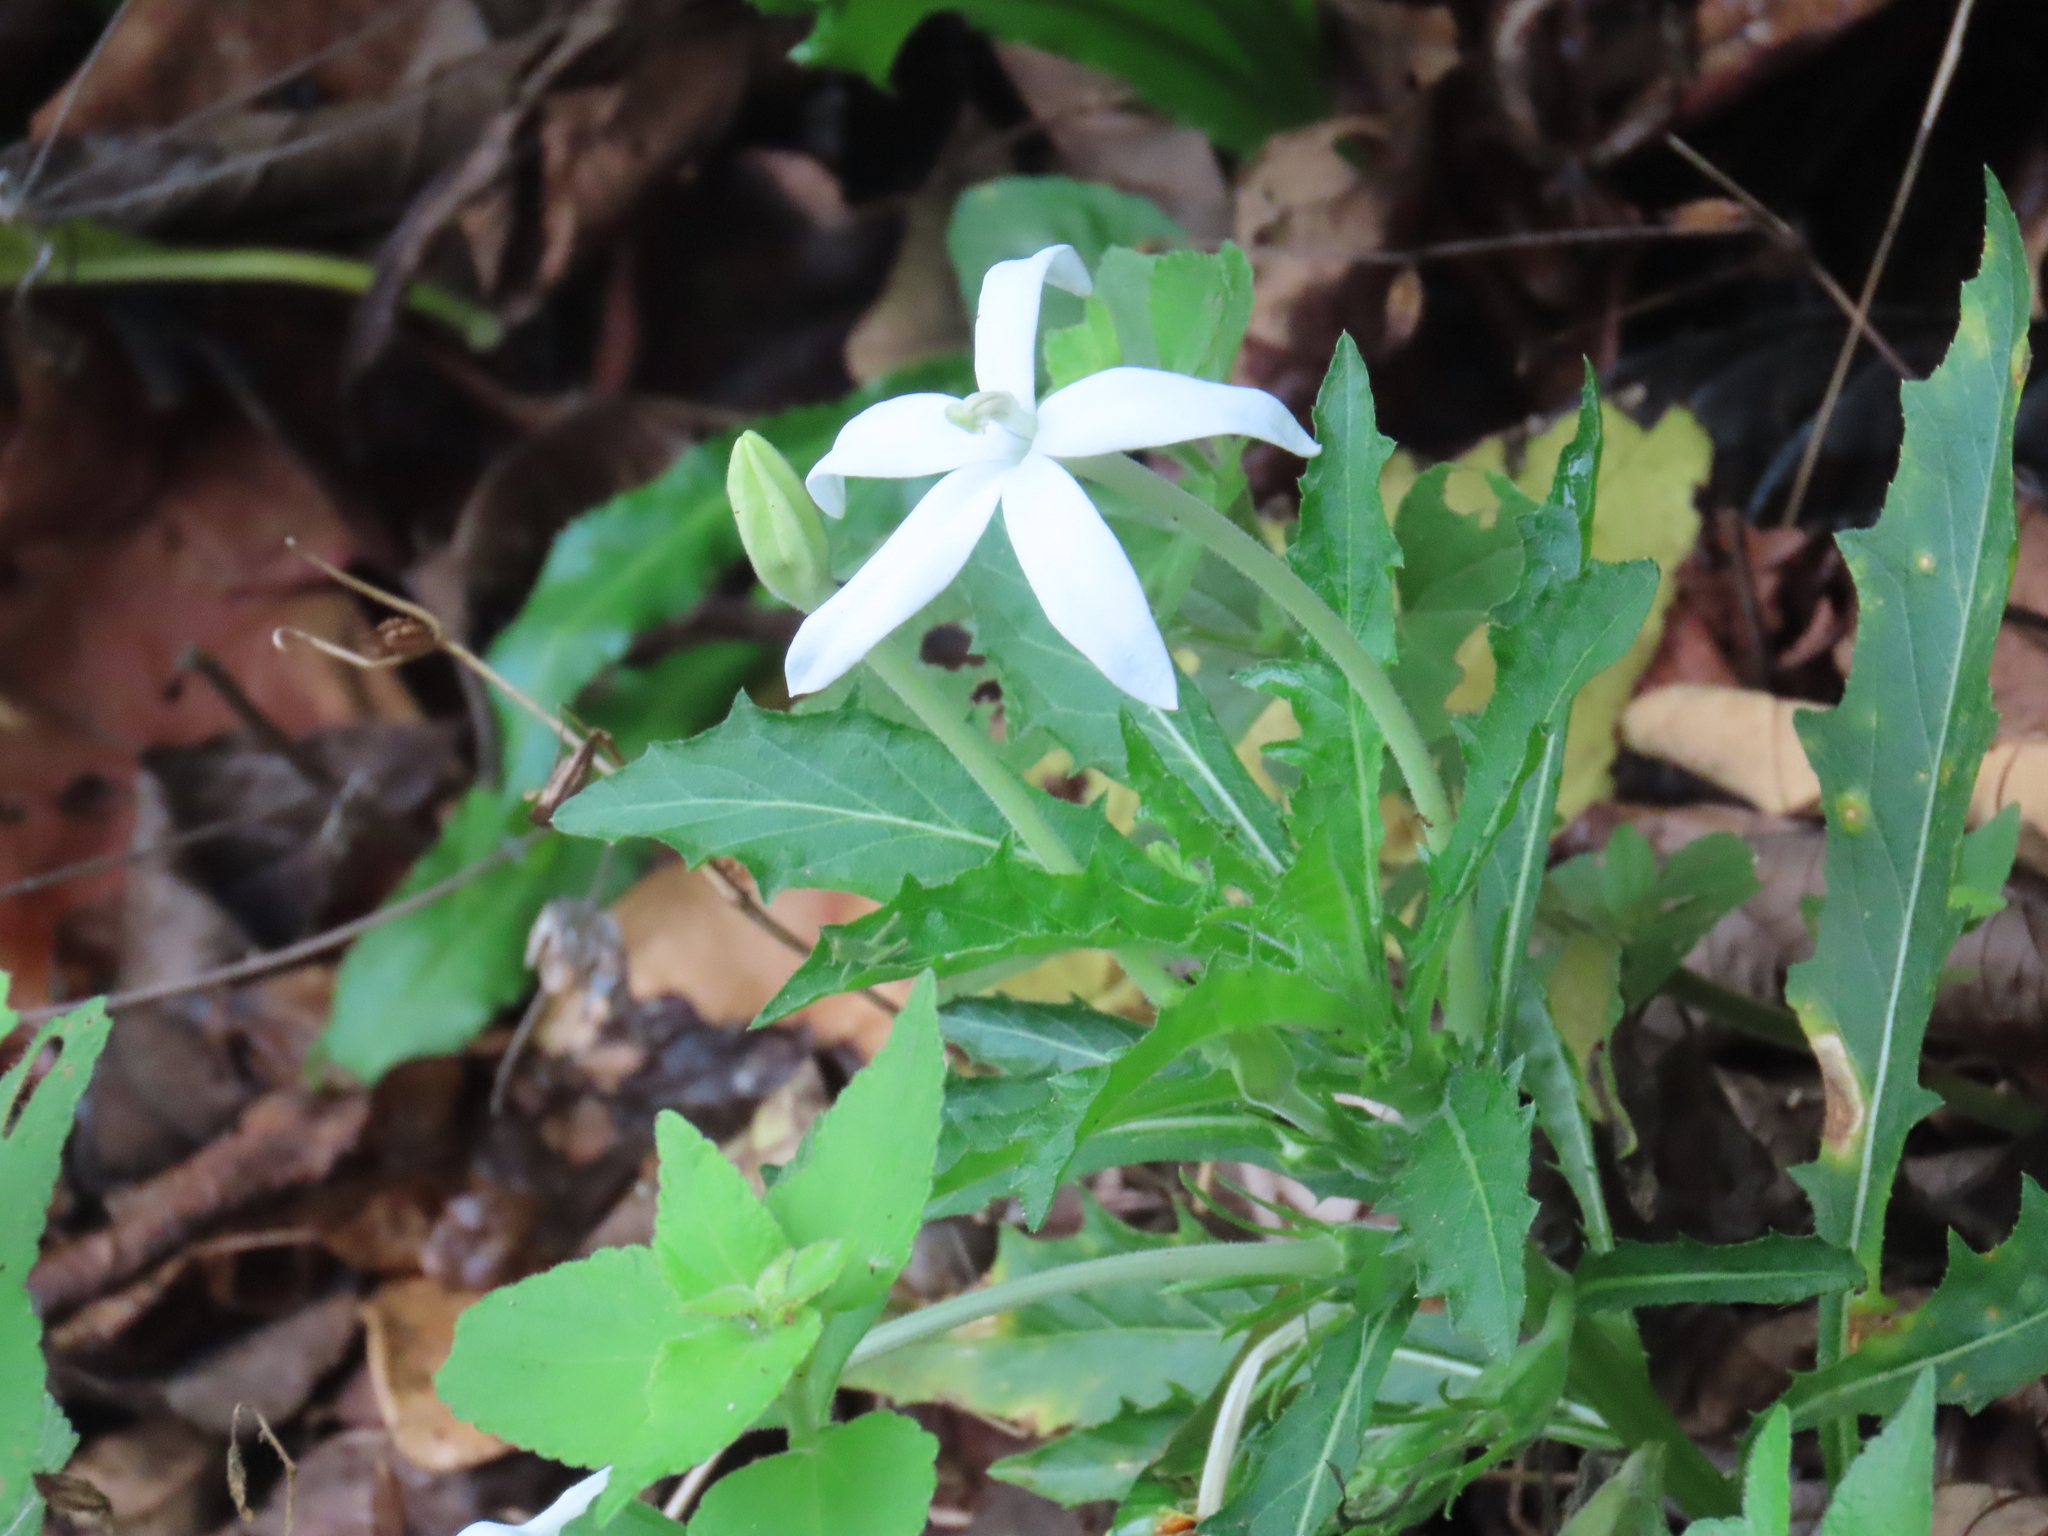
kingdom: Plantae
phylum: Tracheophyta
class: Magnoliopsida
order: Asterales
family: Campanulaceae
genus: Hippobroma
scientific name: Hippobroma longiflora
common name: Madamfate
